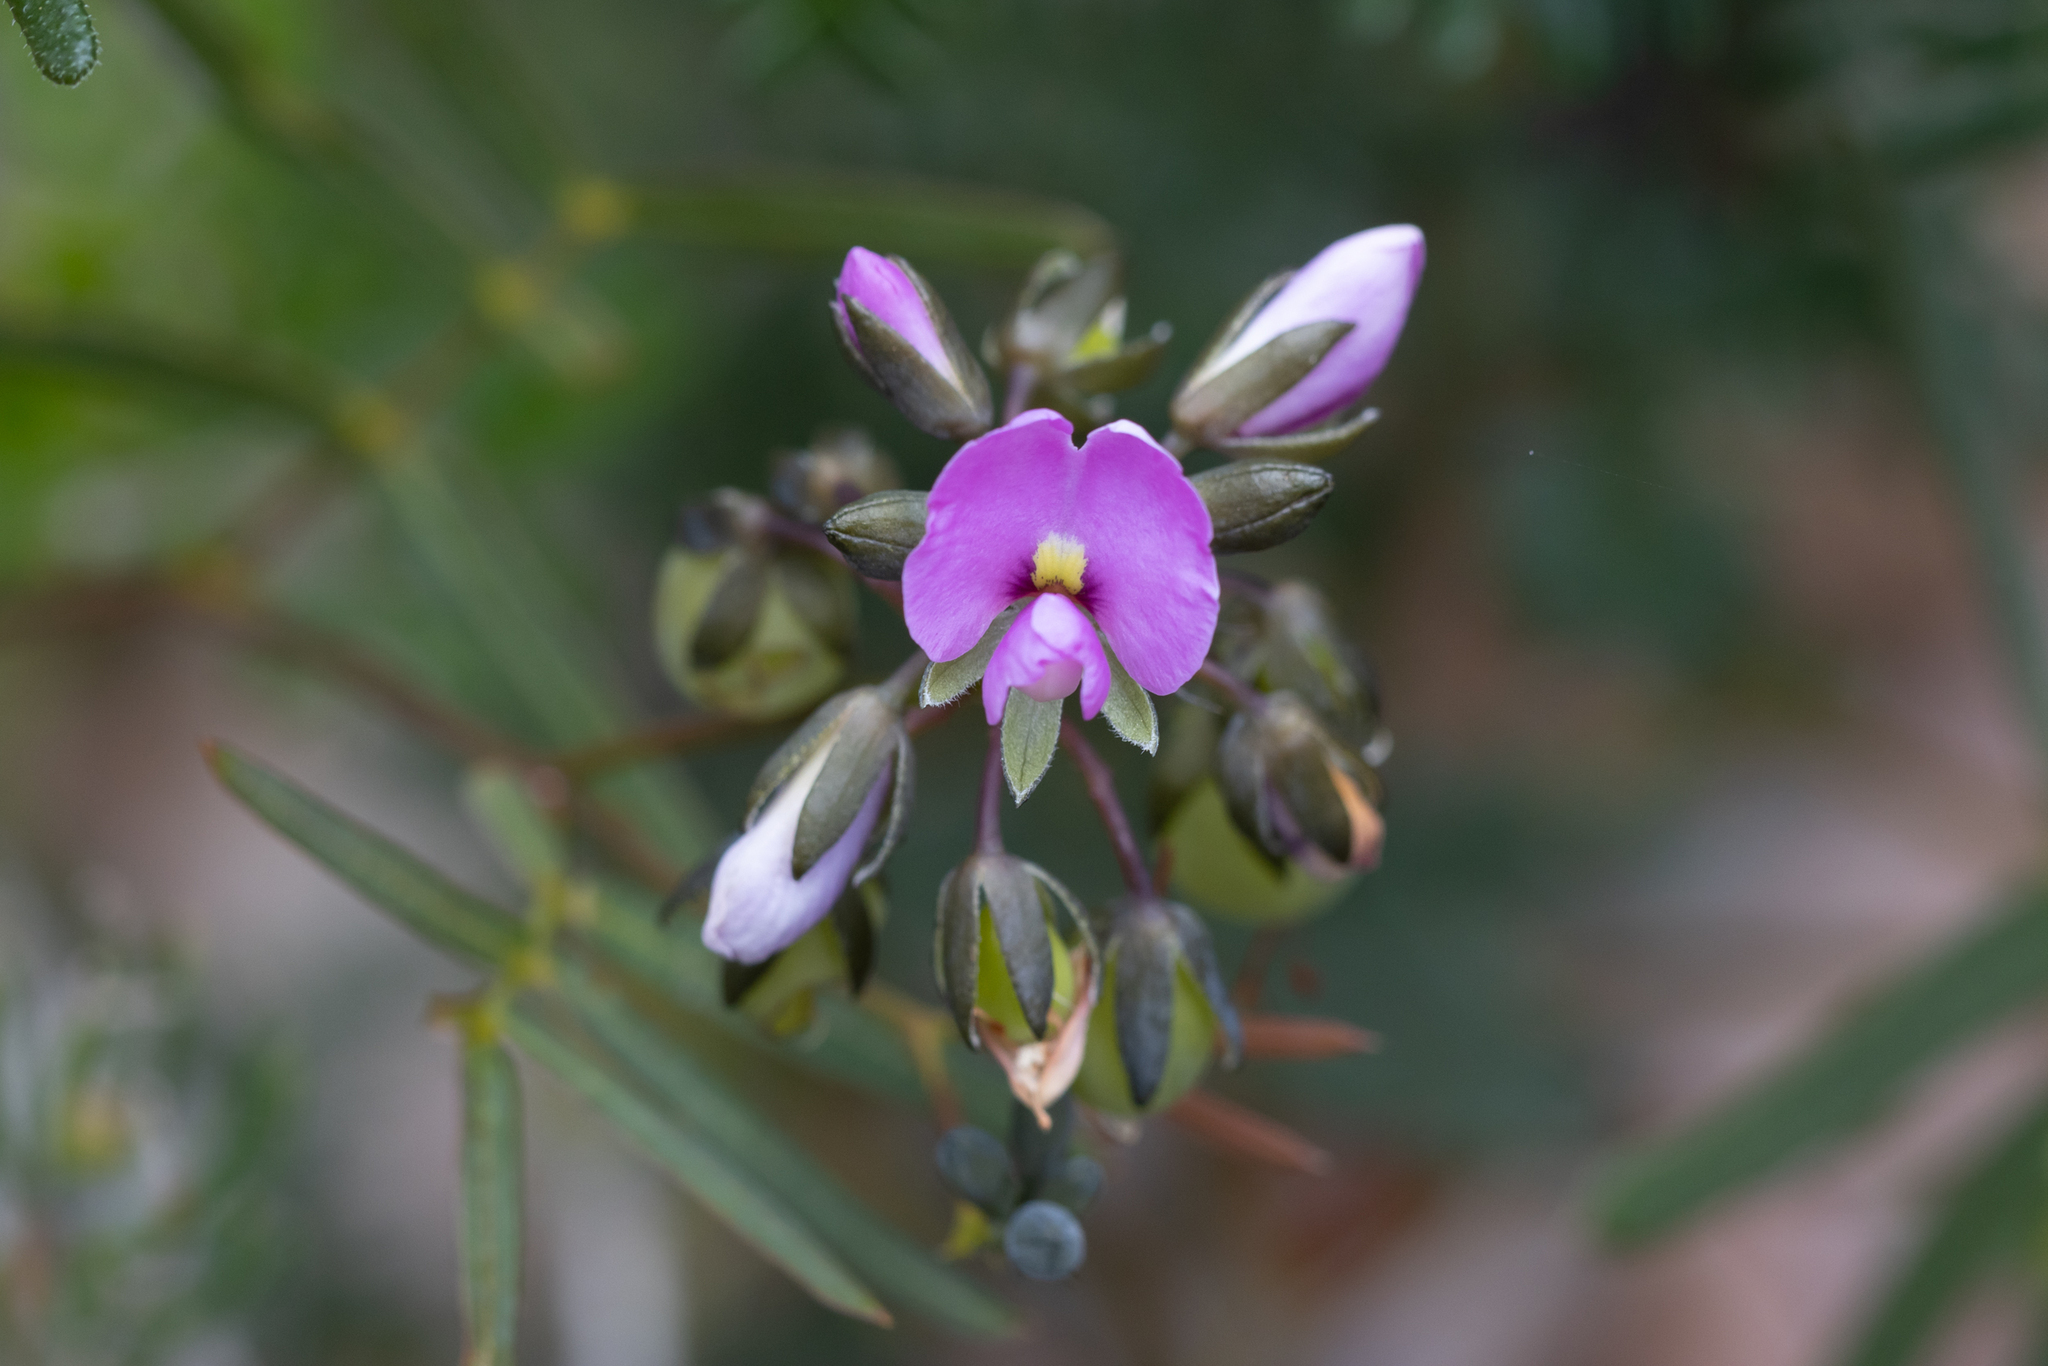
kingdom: Plantae
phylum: Tracheophyta
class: Magnoliopsida
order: Fabales
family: Fabaceae
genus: Gompholobium
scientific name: Gompholobium knightianum
